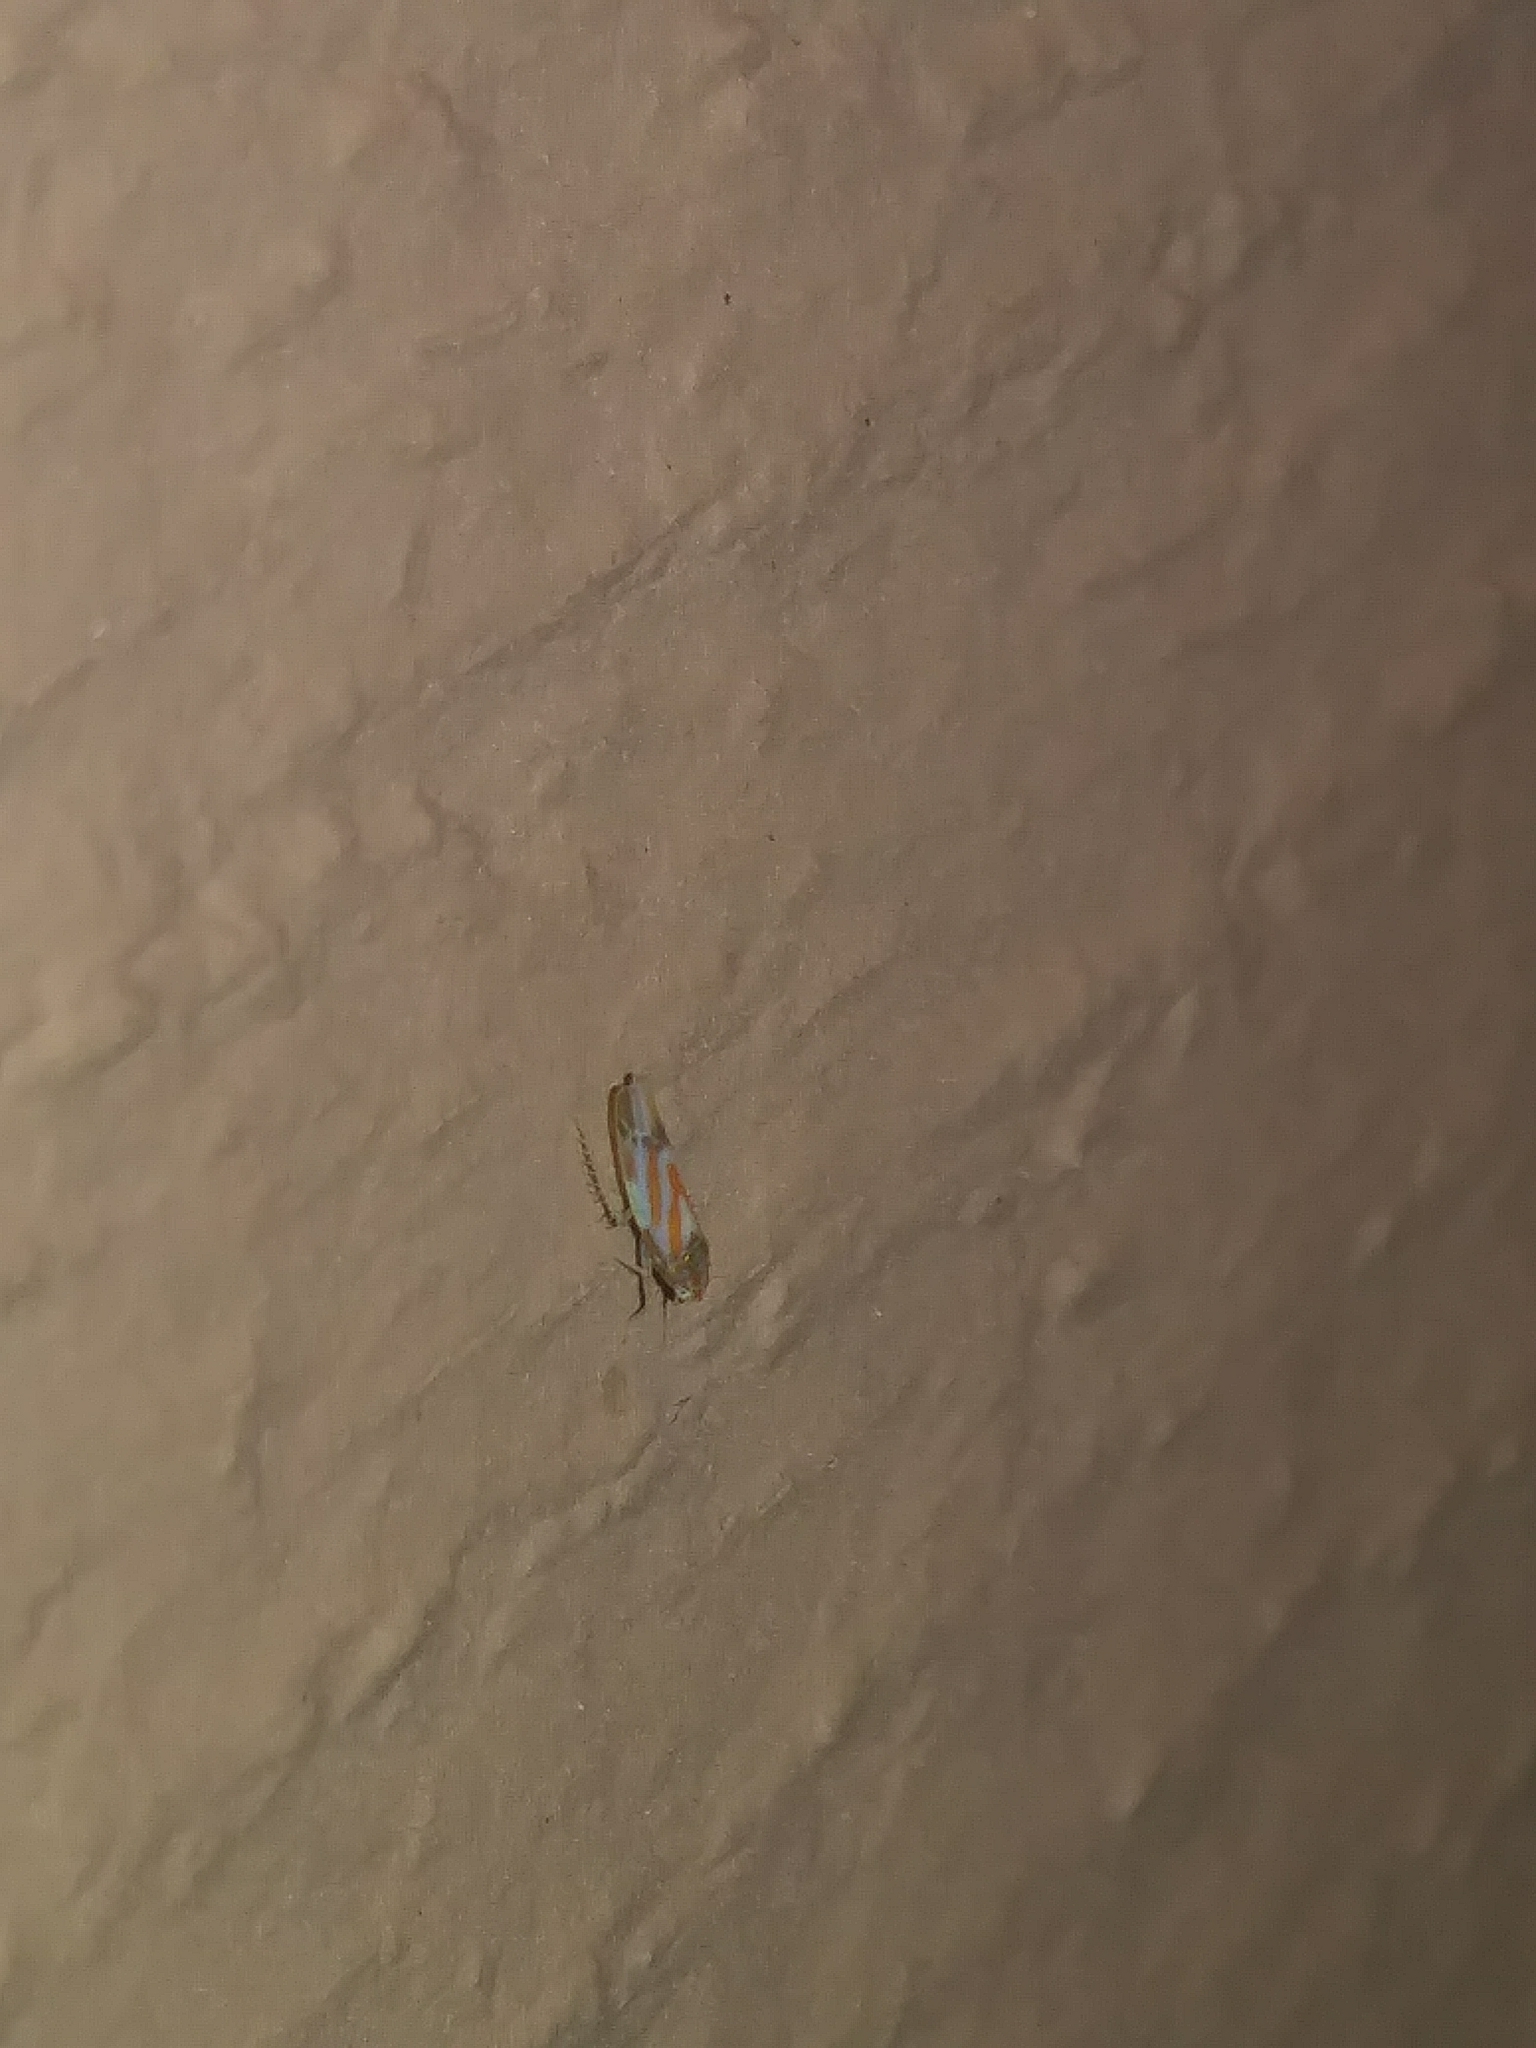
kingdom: Animalia
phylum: Arthropoda
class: Insecta
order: Hemiptera
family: Cicadellidae
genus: Erythridula
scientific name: Erythridula praecisa
